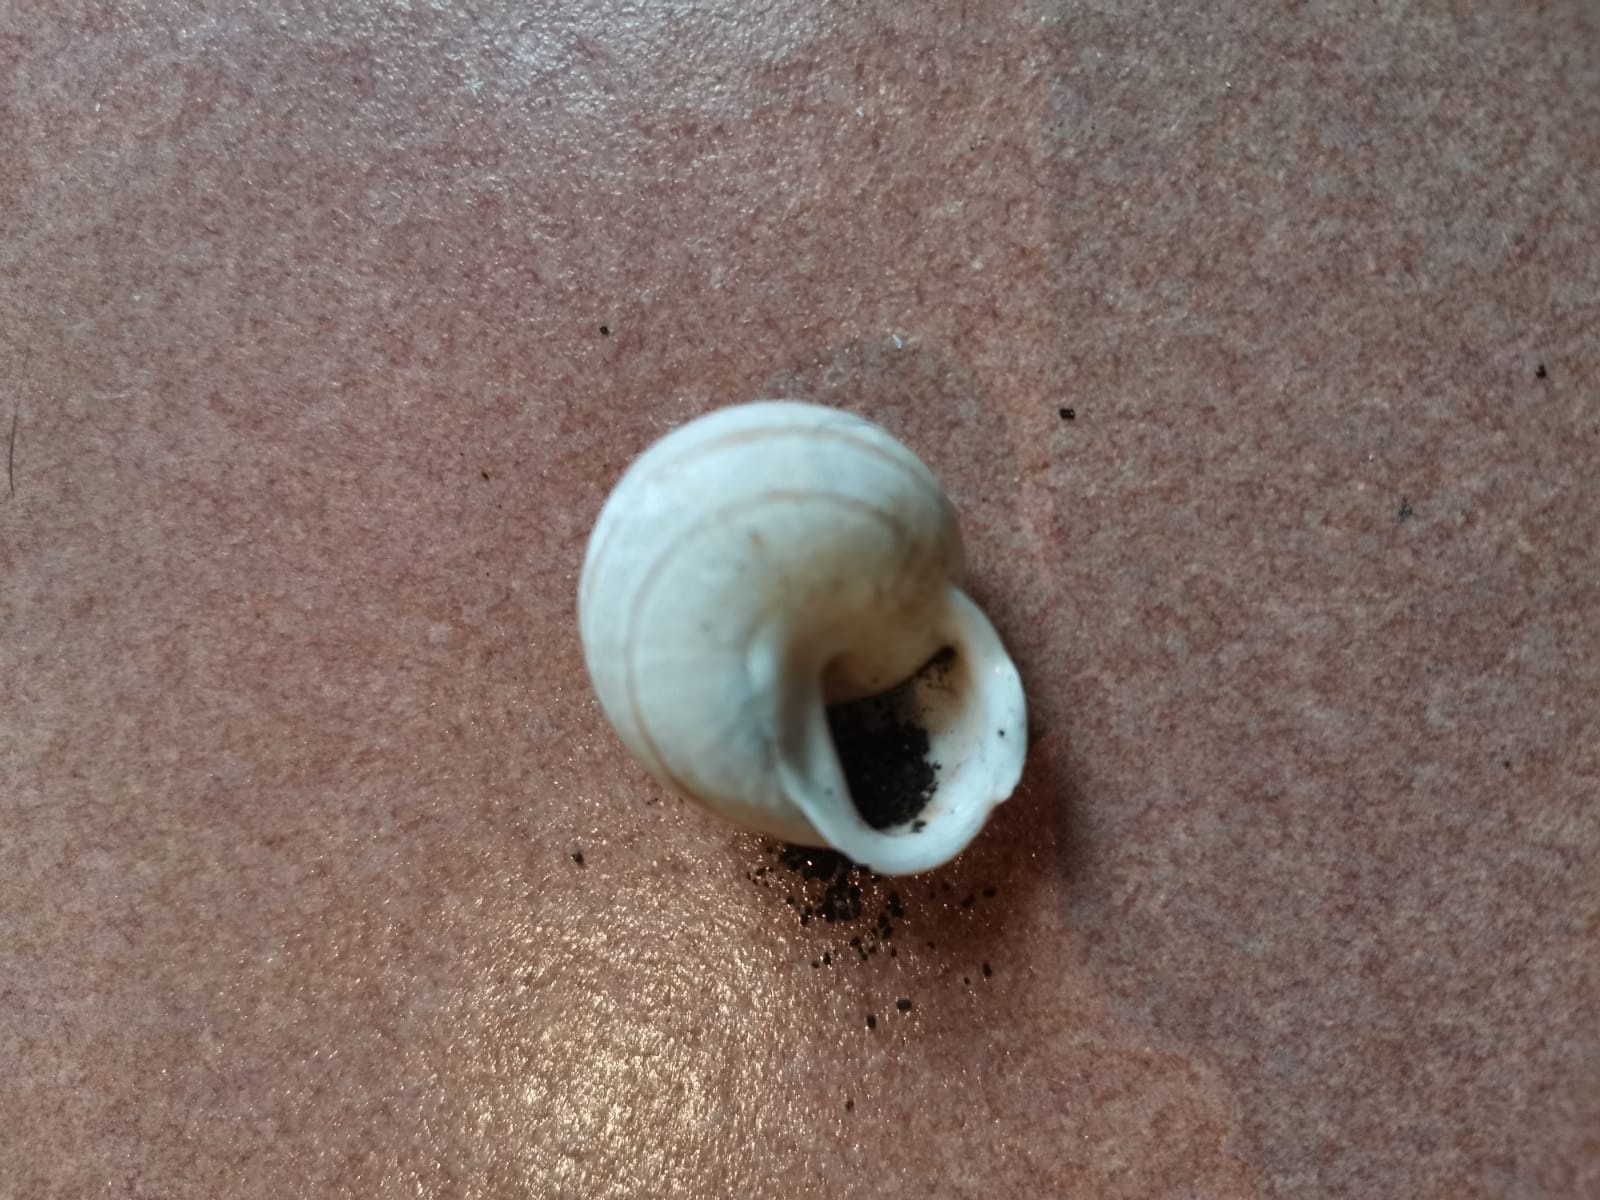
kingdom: Animalia
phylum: Mollusca
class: Gastropoda
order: Stylommatophora
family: Helicidae
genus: Eobania
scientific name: Eobania vermiculata
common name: Chocolateband snail
